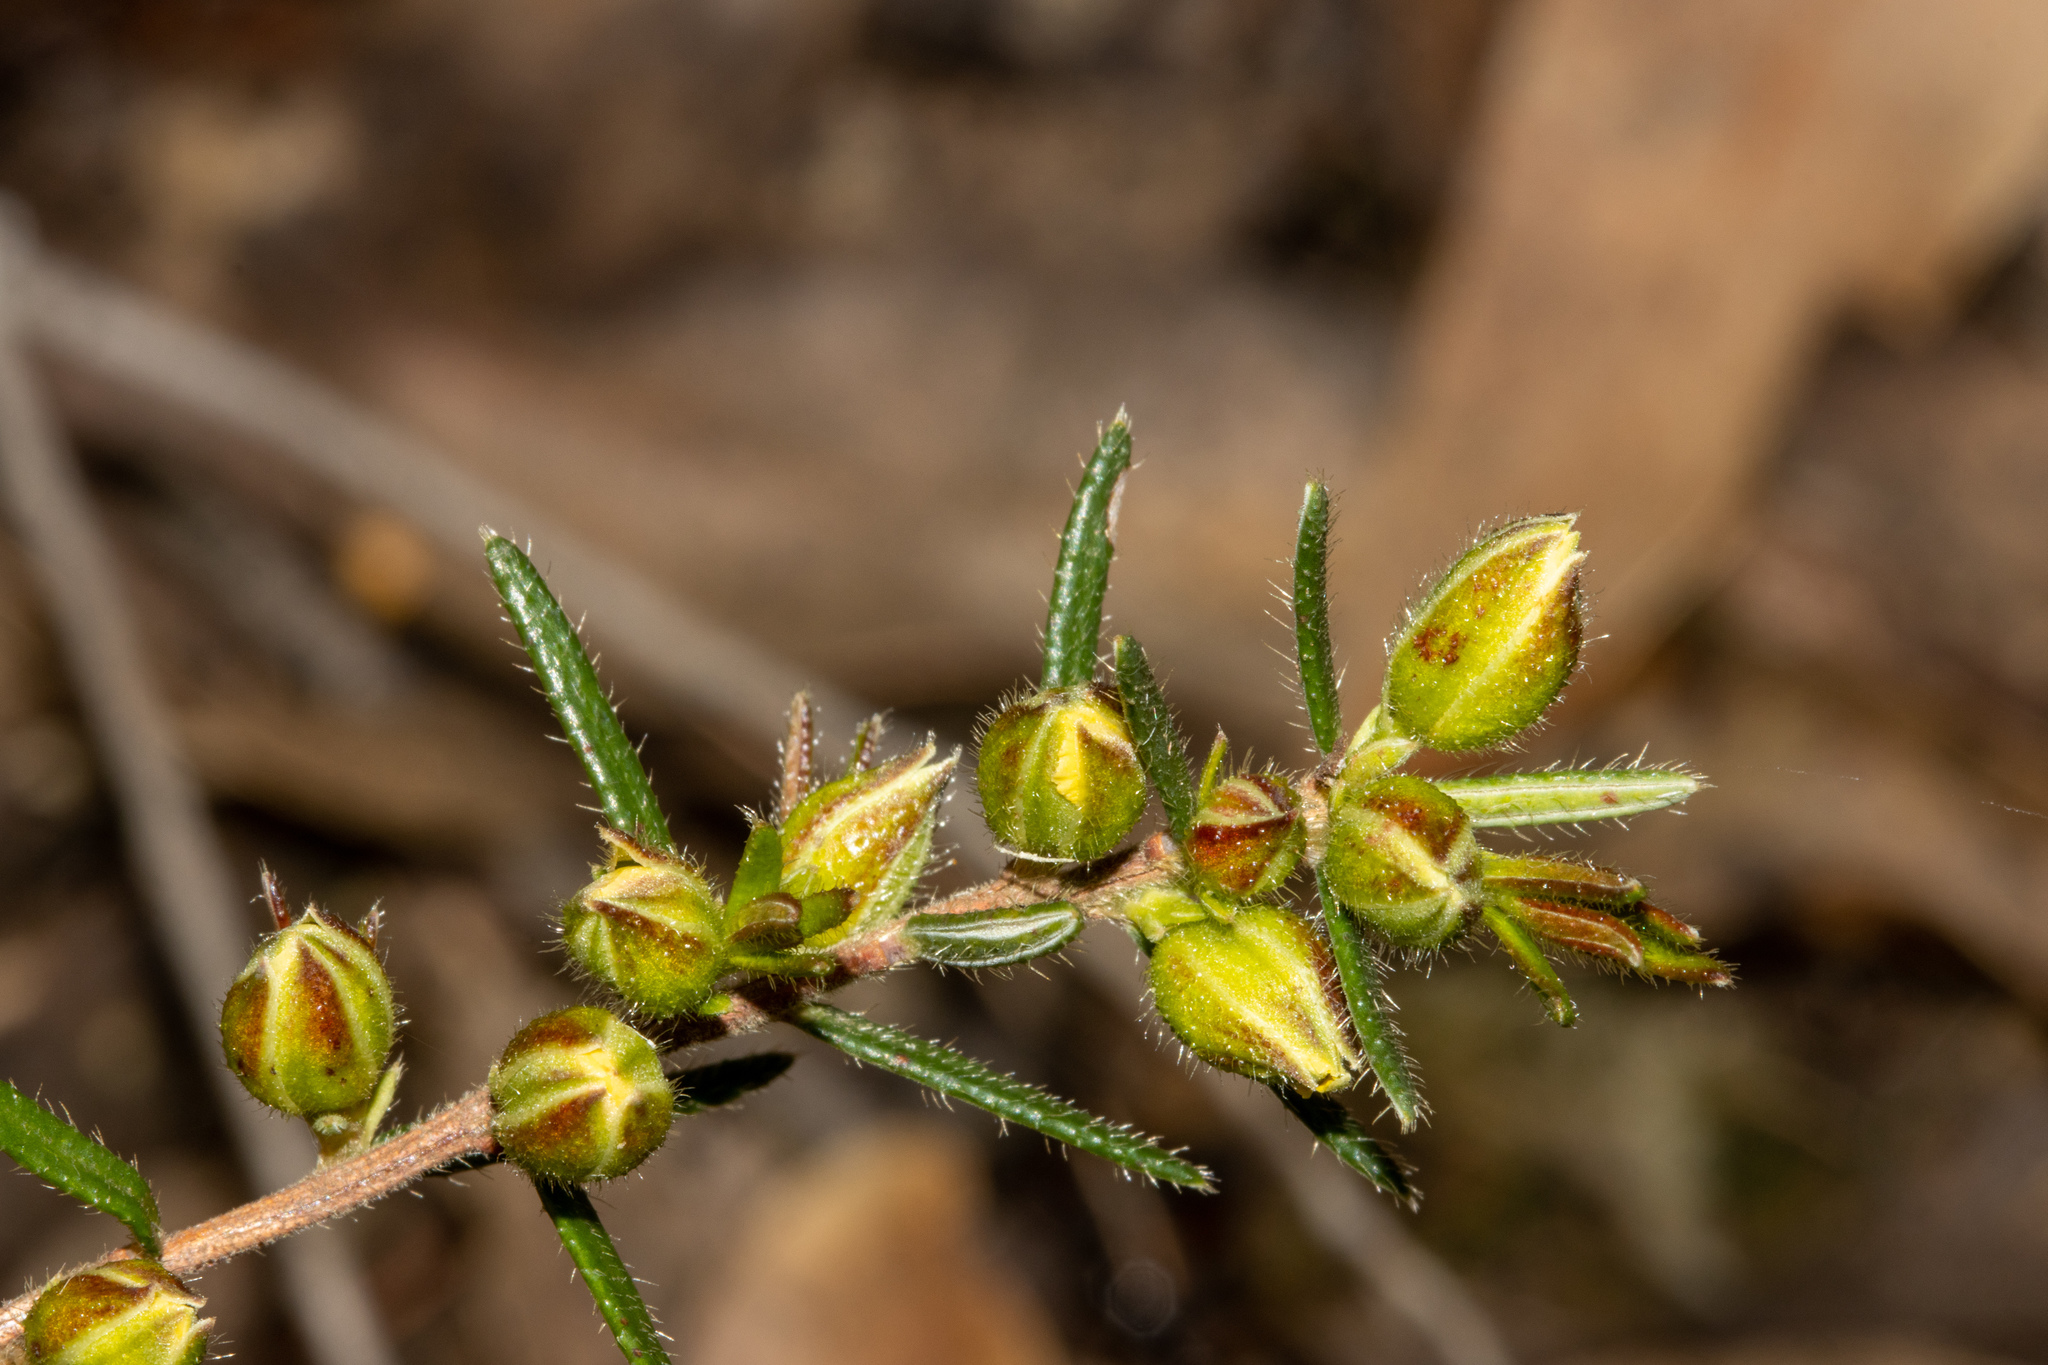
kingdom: Plantae
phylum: Tracheophyta
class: Magnoliopsida
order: Dilleniales
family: Dilleniaceae
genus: Hibbertia
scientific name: Hibbertia riparia
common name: Erect guinea-flower
